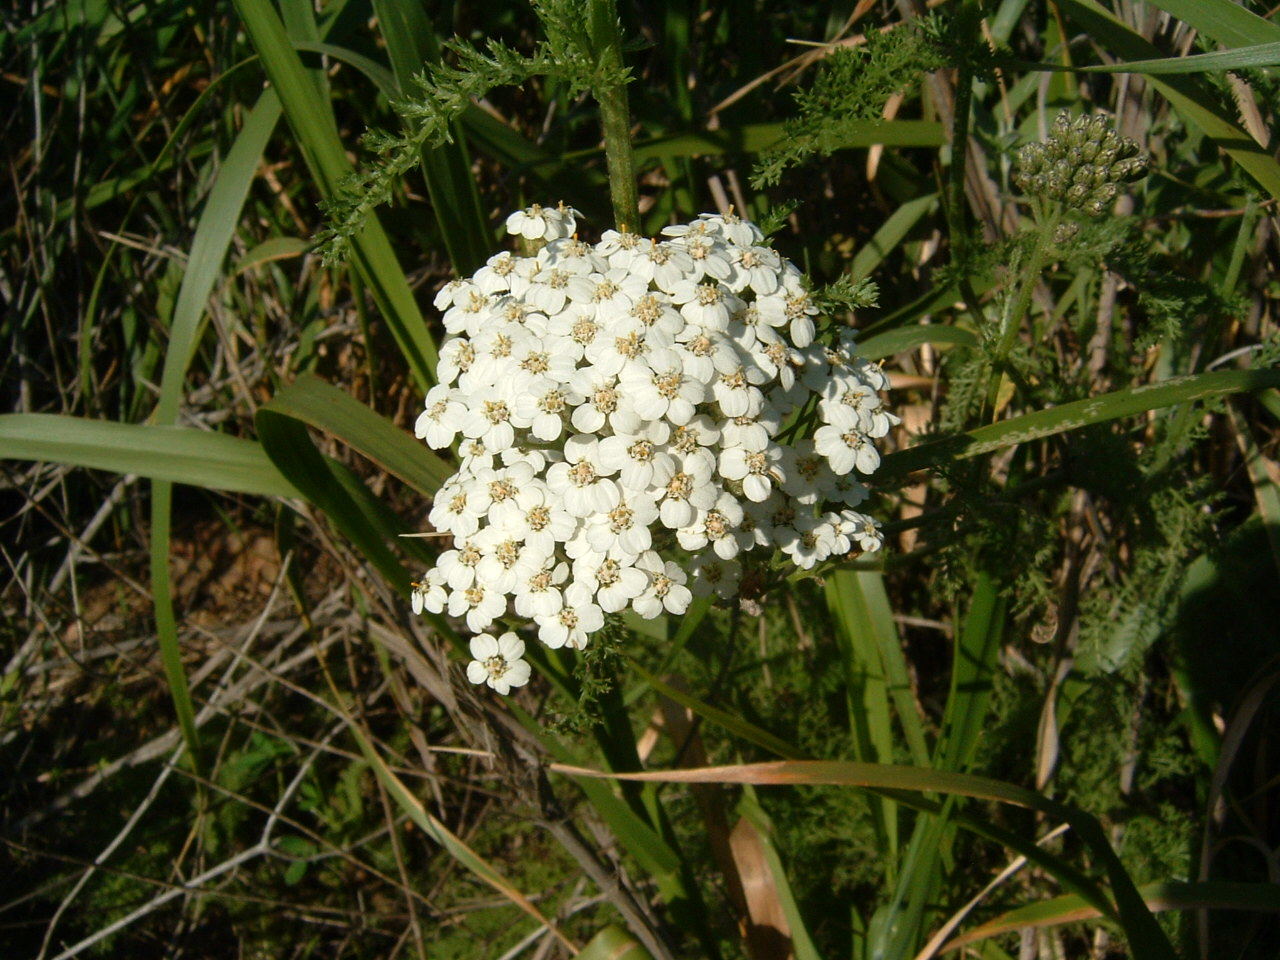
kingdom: Plantae
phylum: Tracheophyta
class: Magnoliopsida
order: Asterales
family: Asteraceae
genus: Achillea
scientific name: Achillea millefolium
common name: Yarrow
